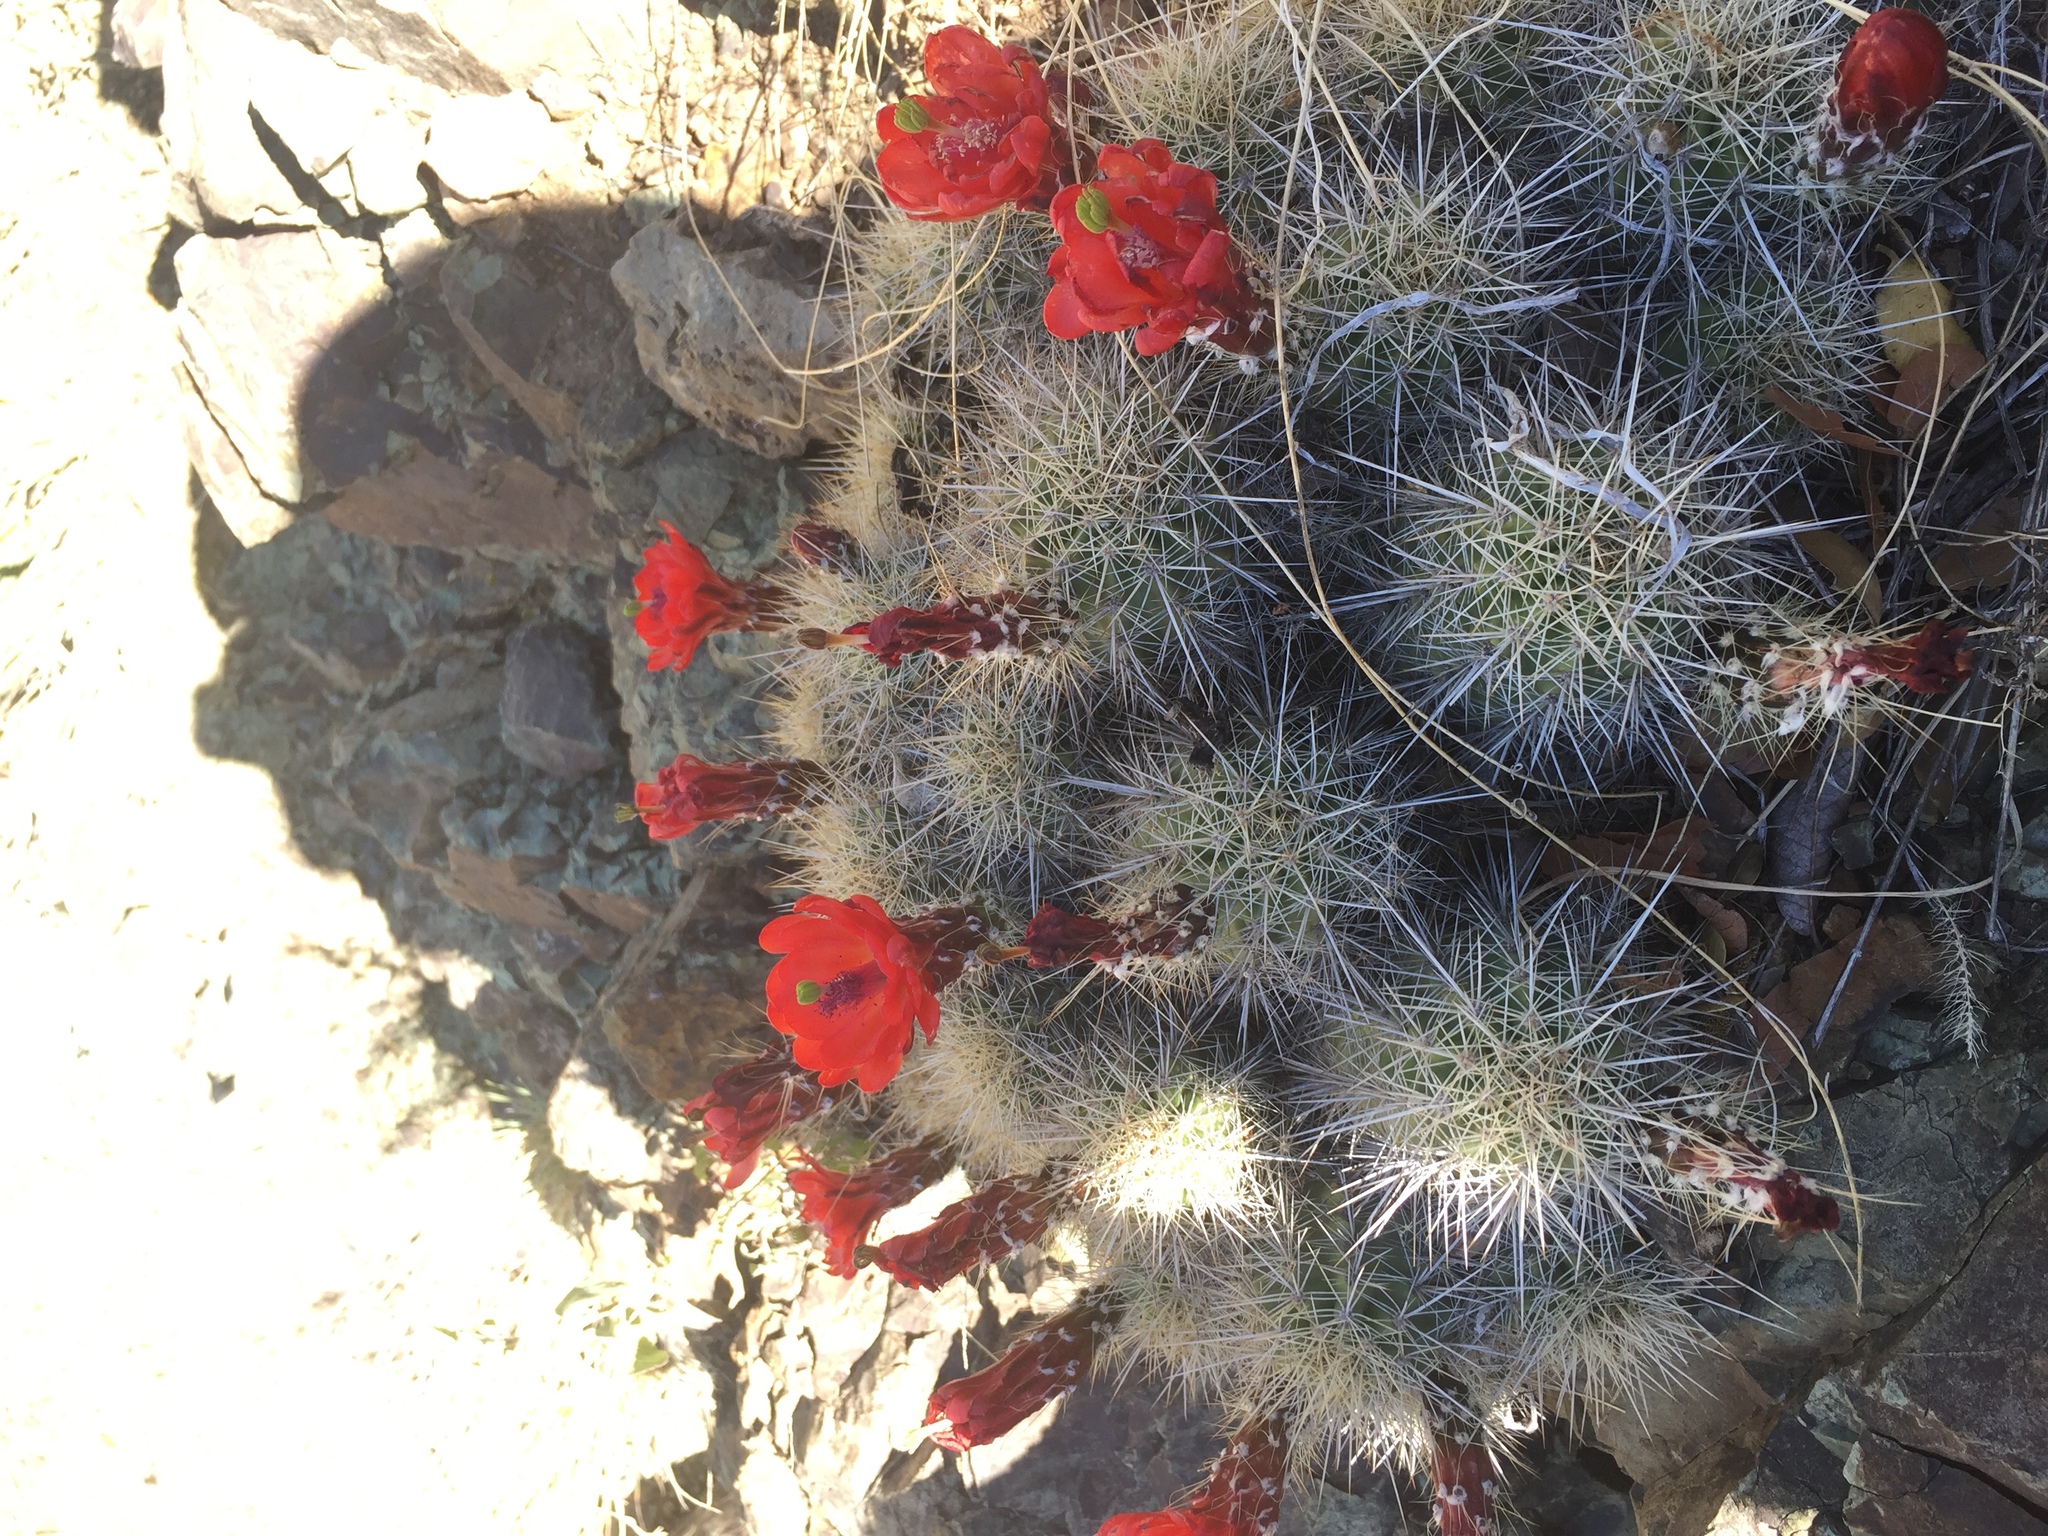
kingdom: Plantae
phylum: Tracheophyta
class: Magnoliopsida
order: Caryophyllales
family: Cactaceae
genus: Echinocereus
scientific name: Echinocereus coccineus
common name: Scarlet hedgehog cactus
